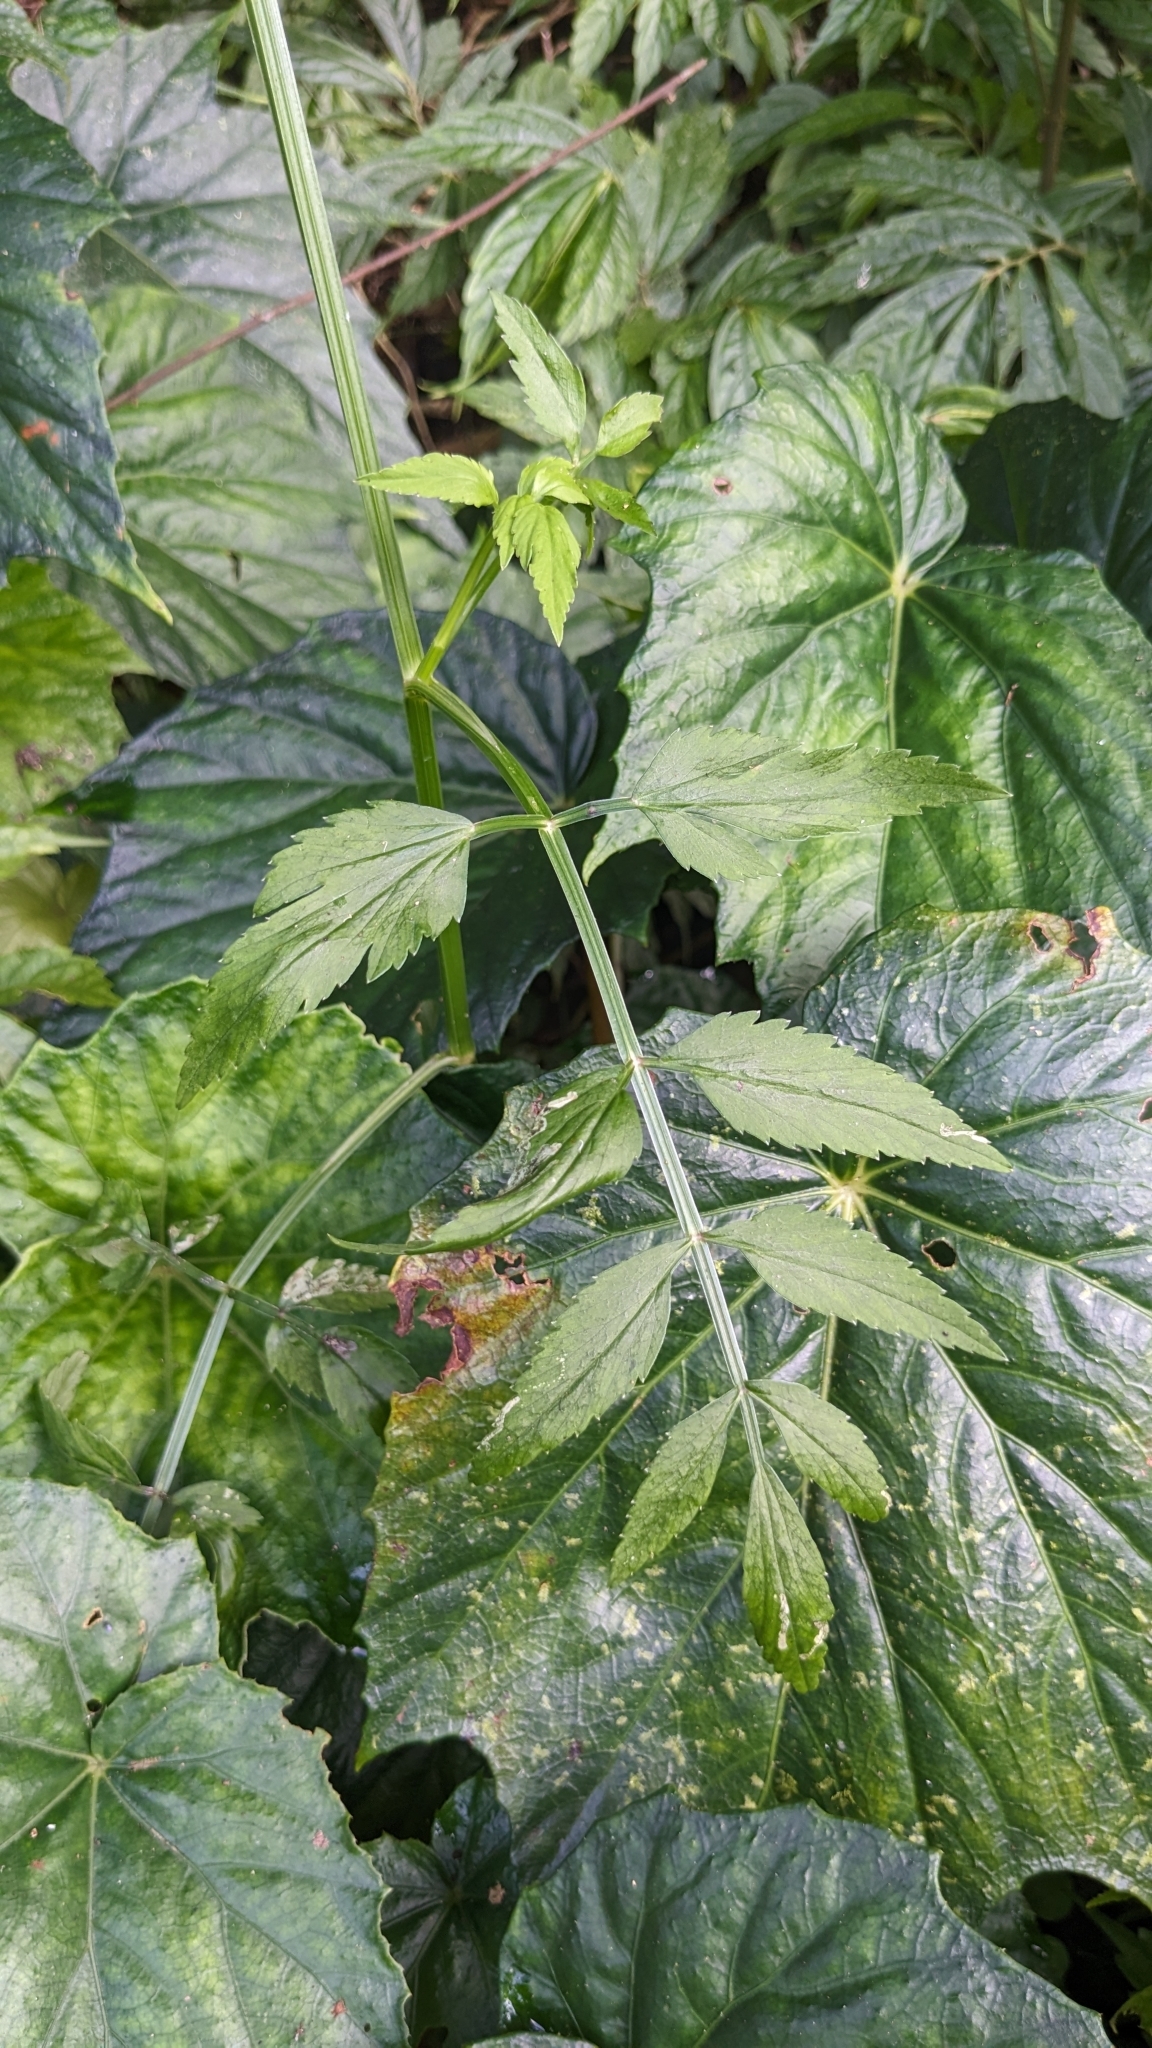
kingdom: Plantae
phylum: Tracheophyta
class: Magnoliopsida
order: Apiales
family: Apiaceae
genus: Oenanthe
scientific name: Oenanthe javanica
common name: Java water-dropwort
